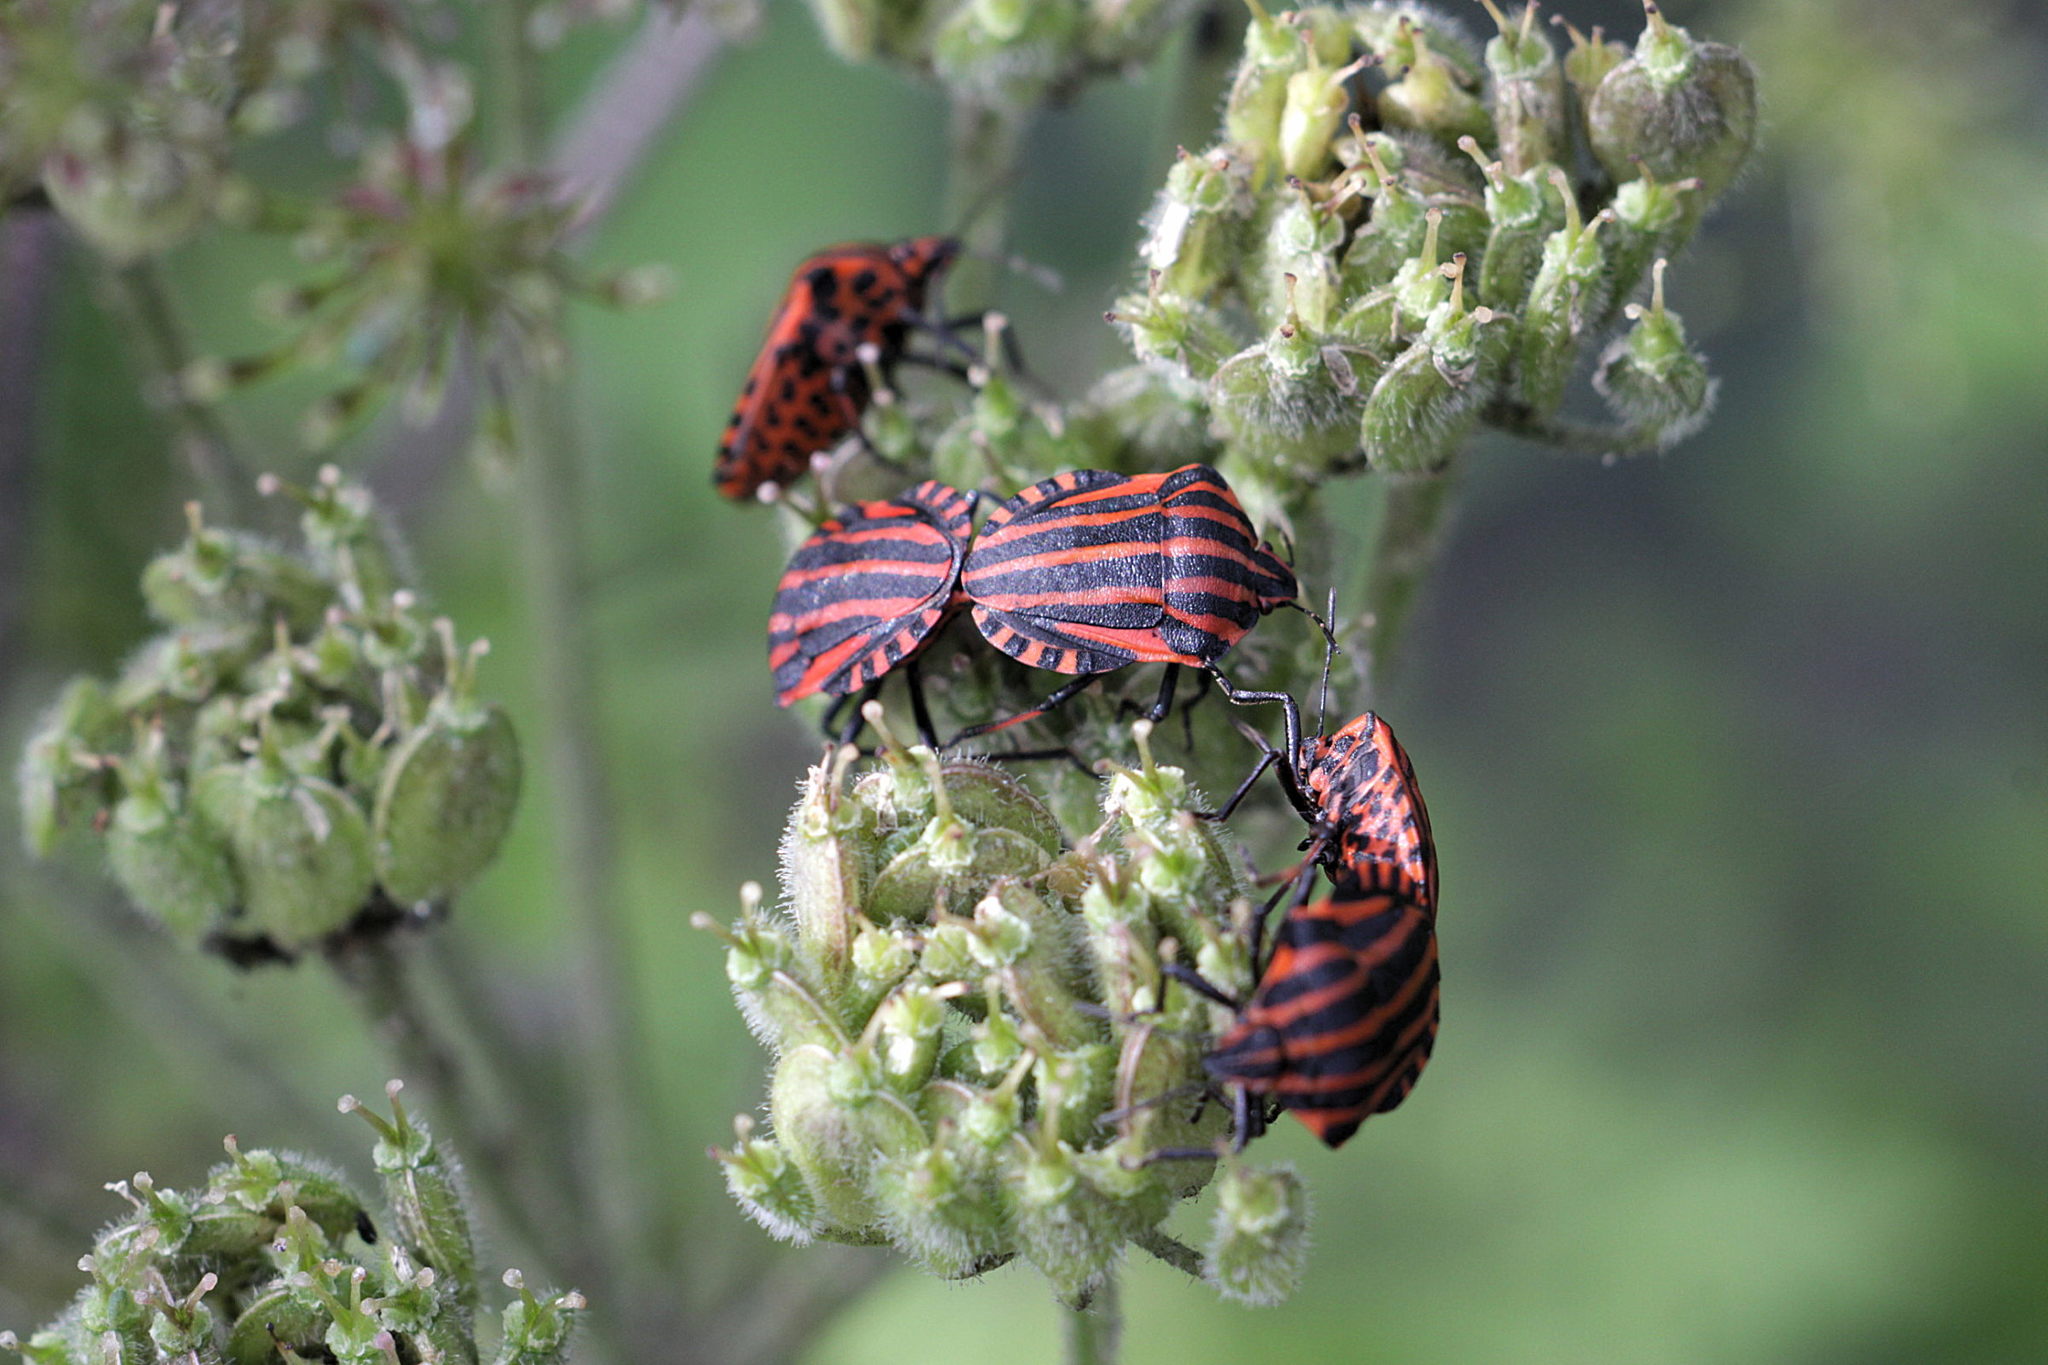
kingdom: Animalia
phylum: Arthropoda
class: Insecta
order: Hemiptera
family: Pentatomidae
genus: Graphosoma
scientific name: Graphosoma italicum
